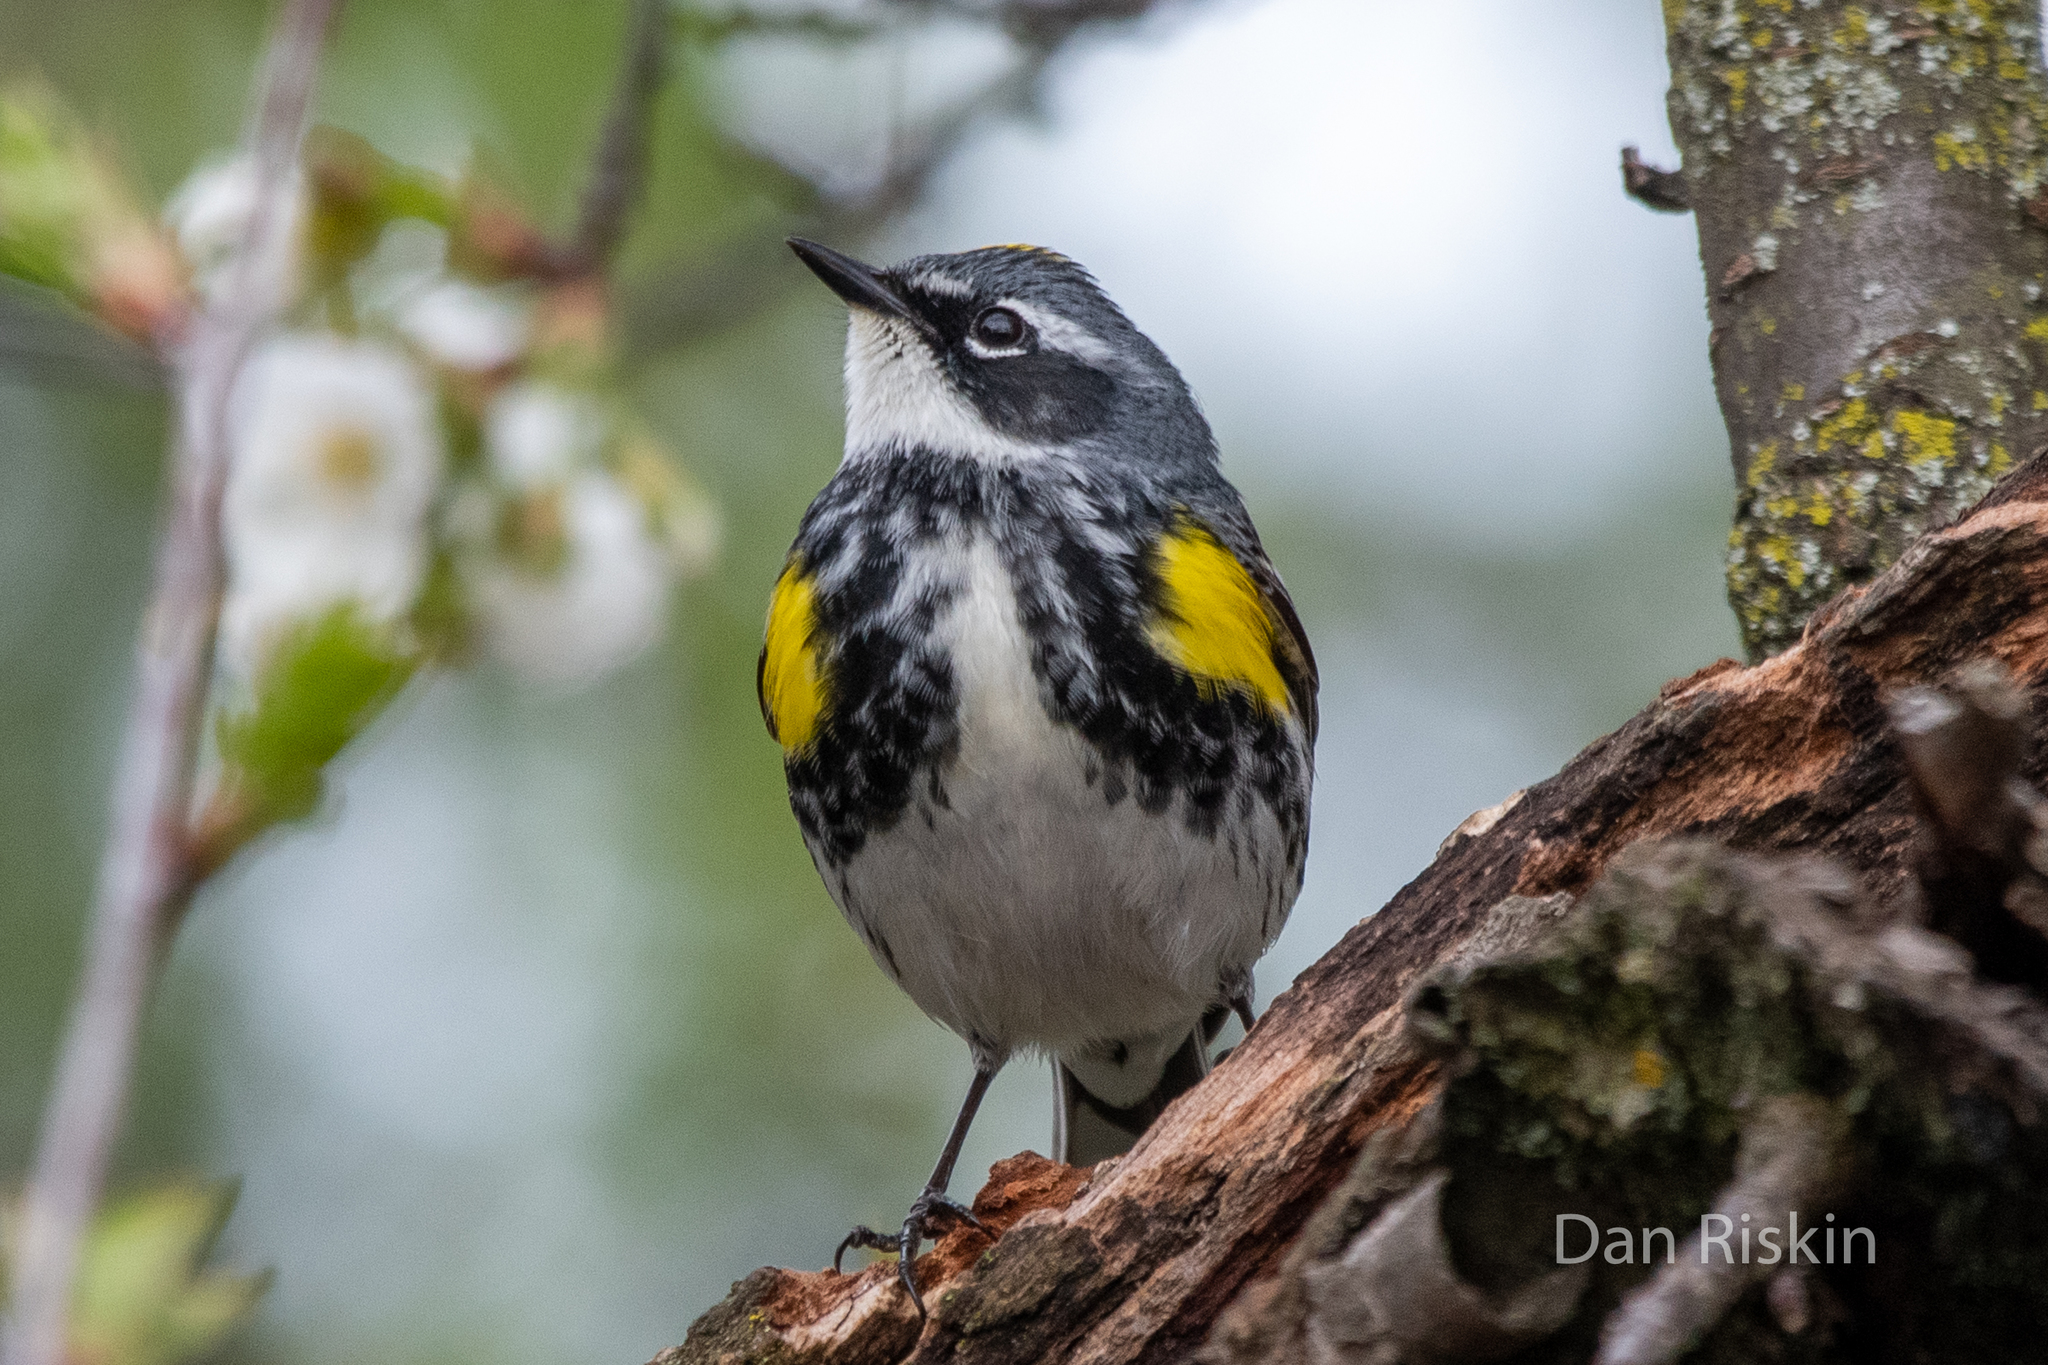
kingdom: Animalia
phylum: Chordata
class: Aves
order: Passeriformes
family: Parulidae
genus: Setophaga
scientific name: Setophaga coronata
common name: Myrtle warbler
